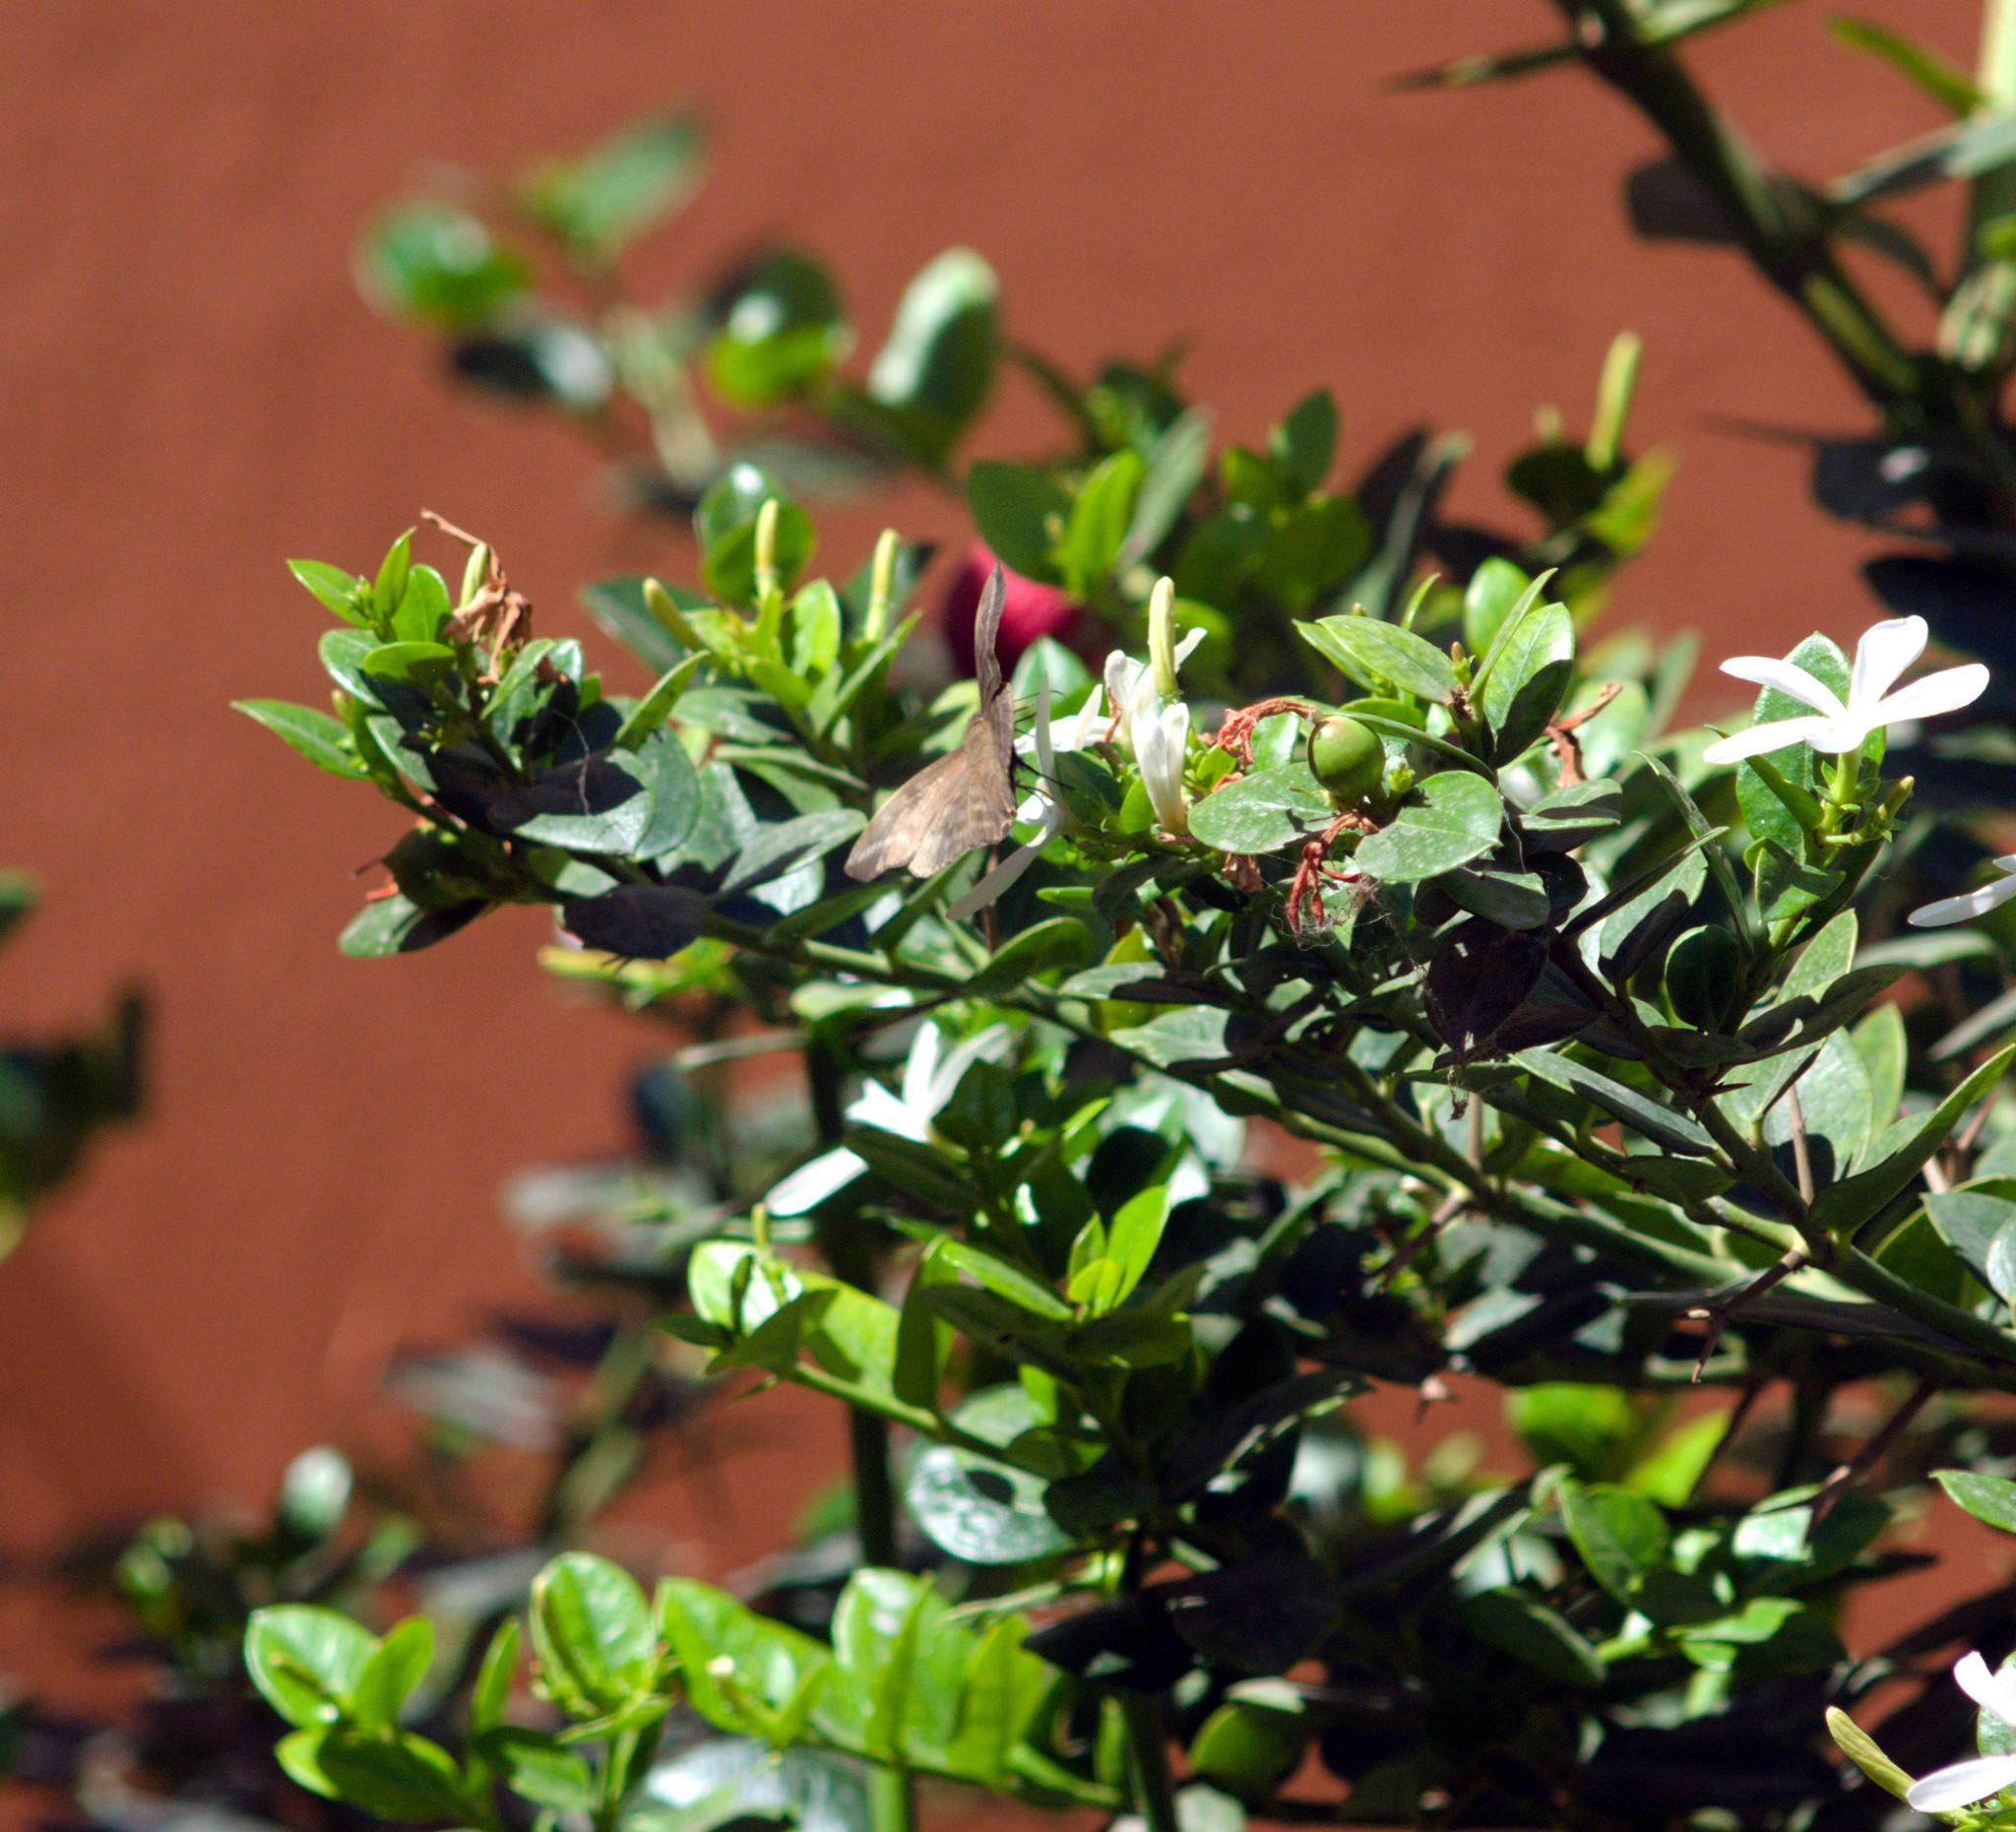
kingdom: Animalia
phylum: Arthropoda
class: Insecta
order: Lepidoptera
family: Hesperiidae
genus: Achlyodes
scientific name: Achlyodes pallida
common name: Pale sicklewing
